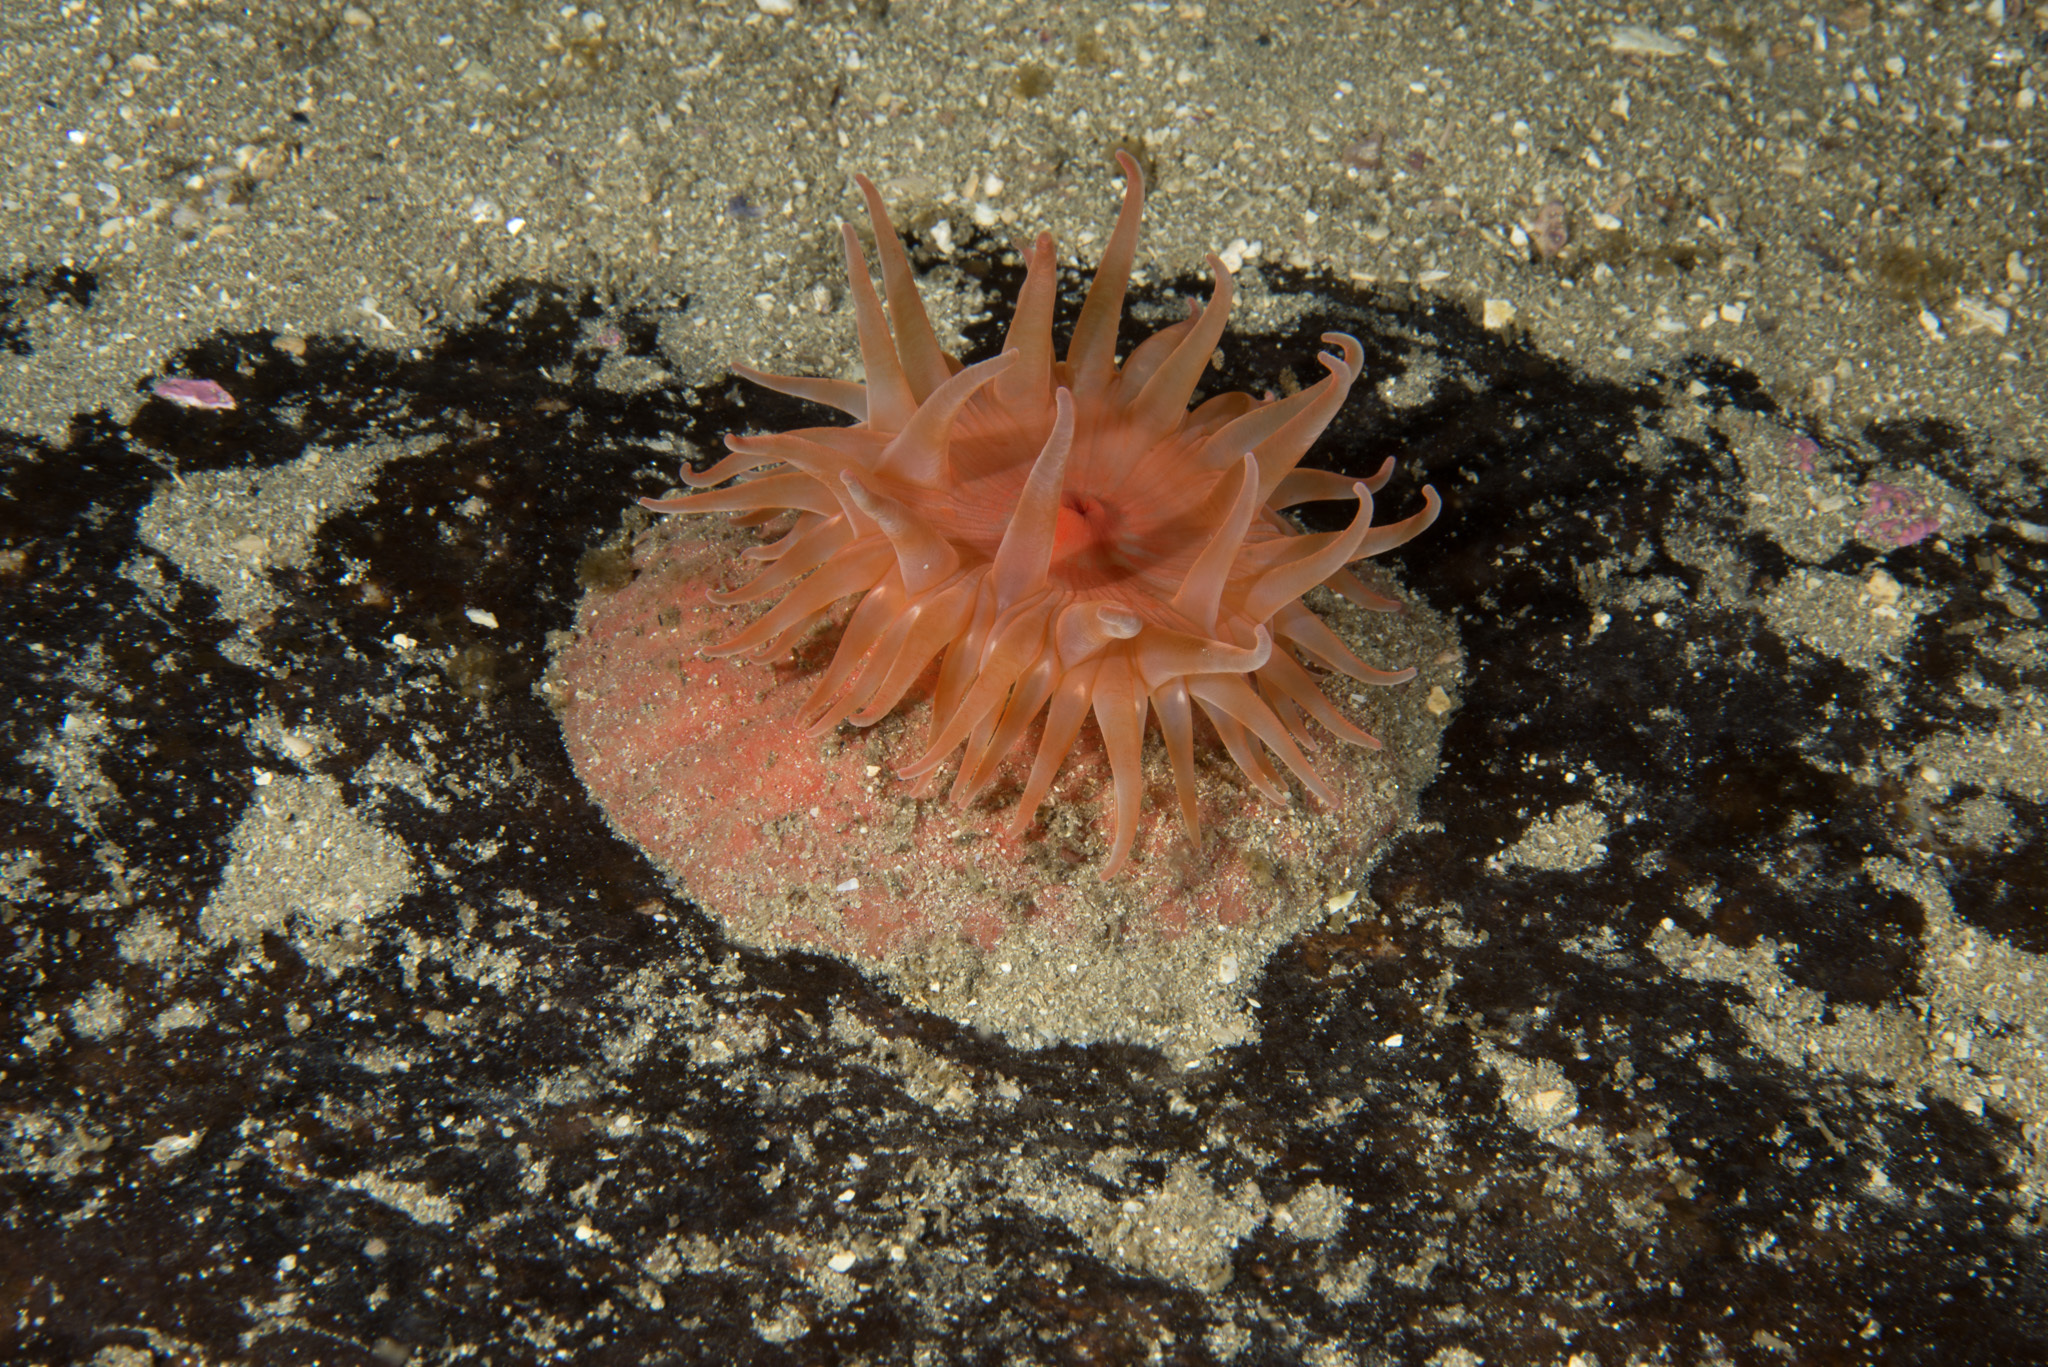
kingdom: Animalia
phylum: Cnidaria
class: Anthozoa
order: Actiniaria
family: Actinostolidae
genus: Stomphia
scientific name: Stomphia coccinea
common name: Spotted swimming anemone
